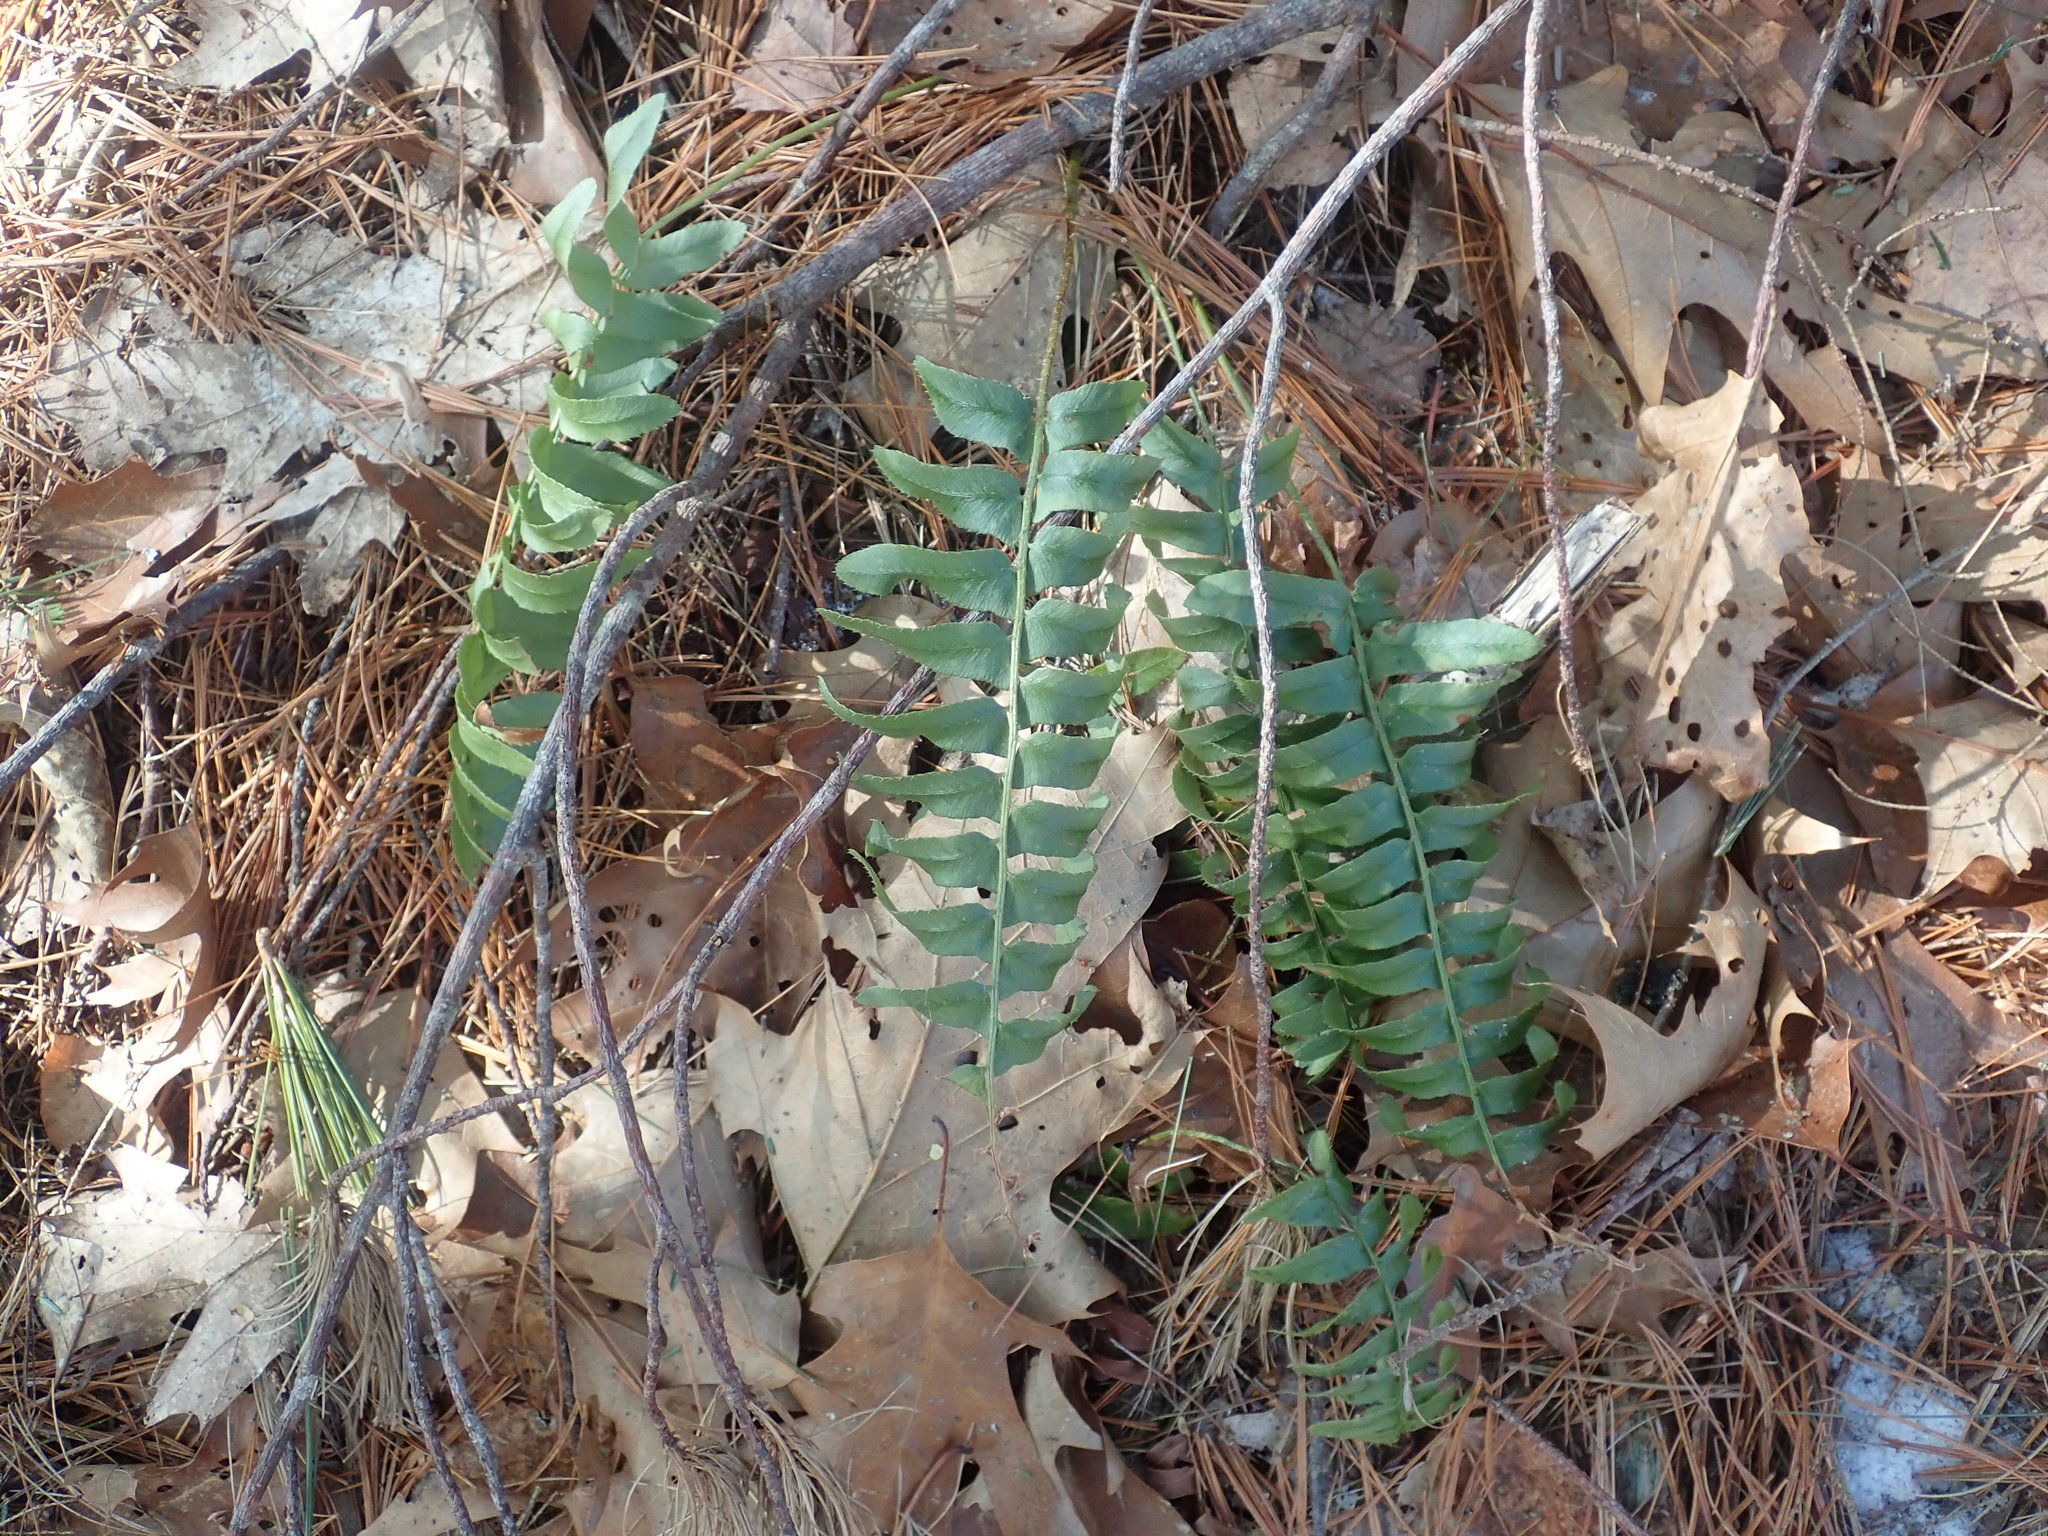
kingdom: Plantae
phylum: Tracheophyta
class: Polypodiopsida
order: Polypodiales
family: Dryopteridaceae
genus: Polystichum
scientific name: Polystichum acrostichoides
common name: Christmas fern
